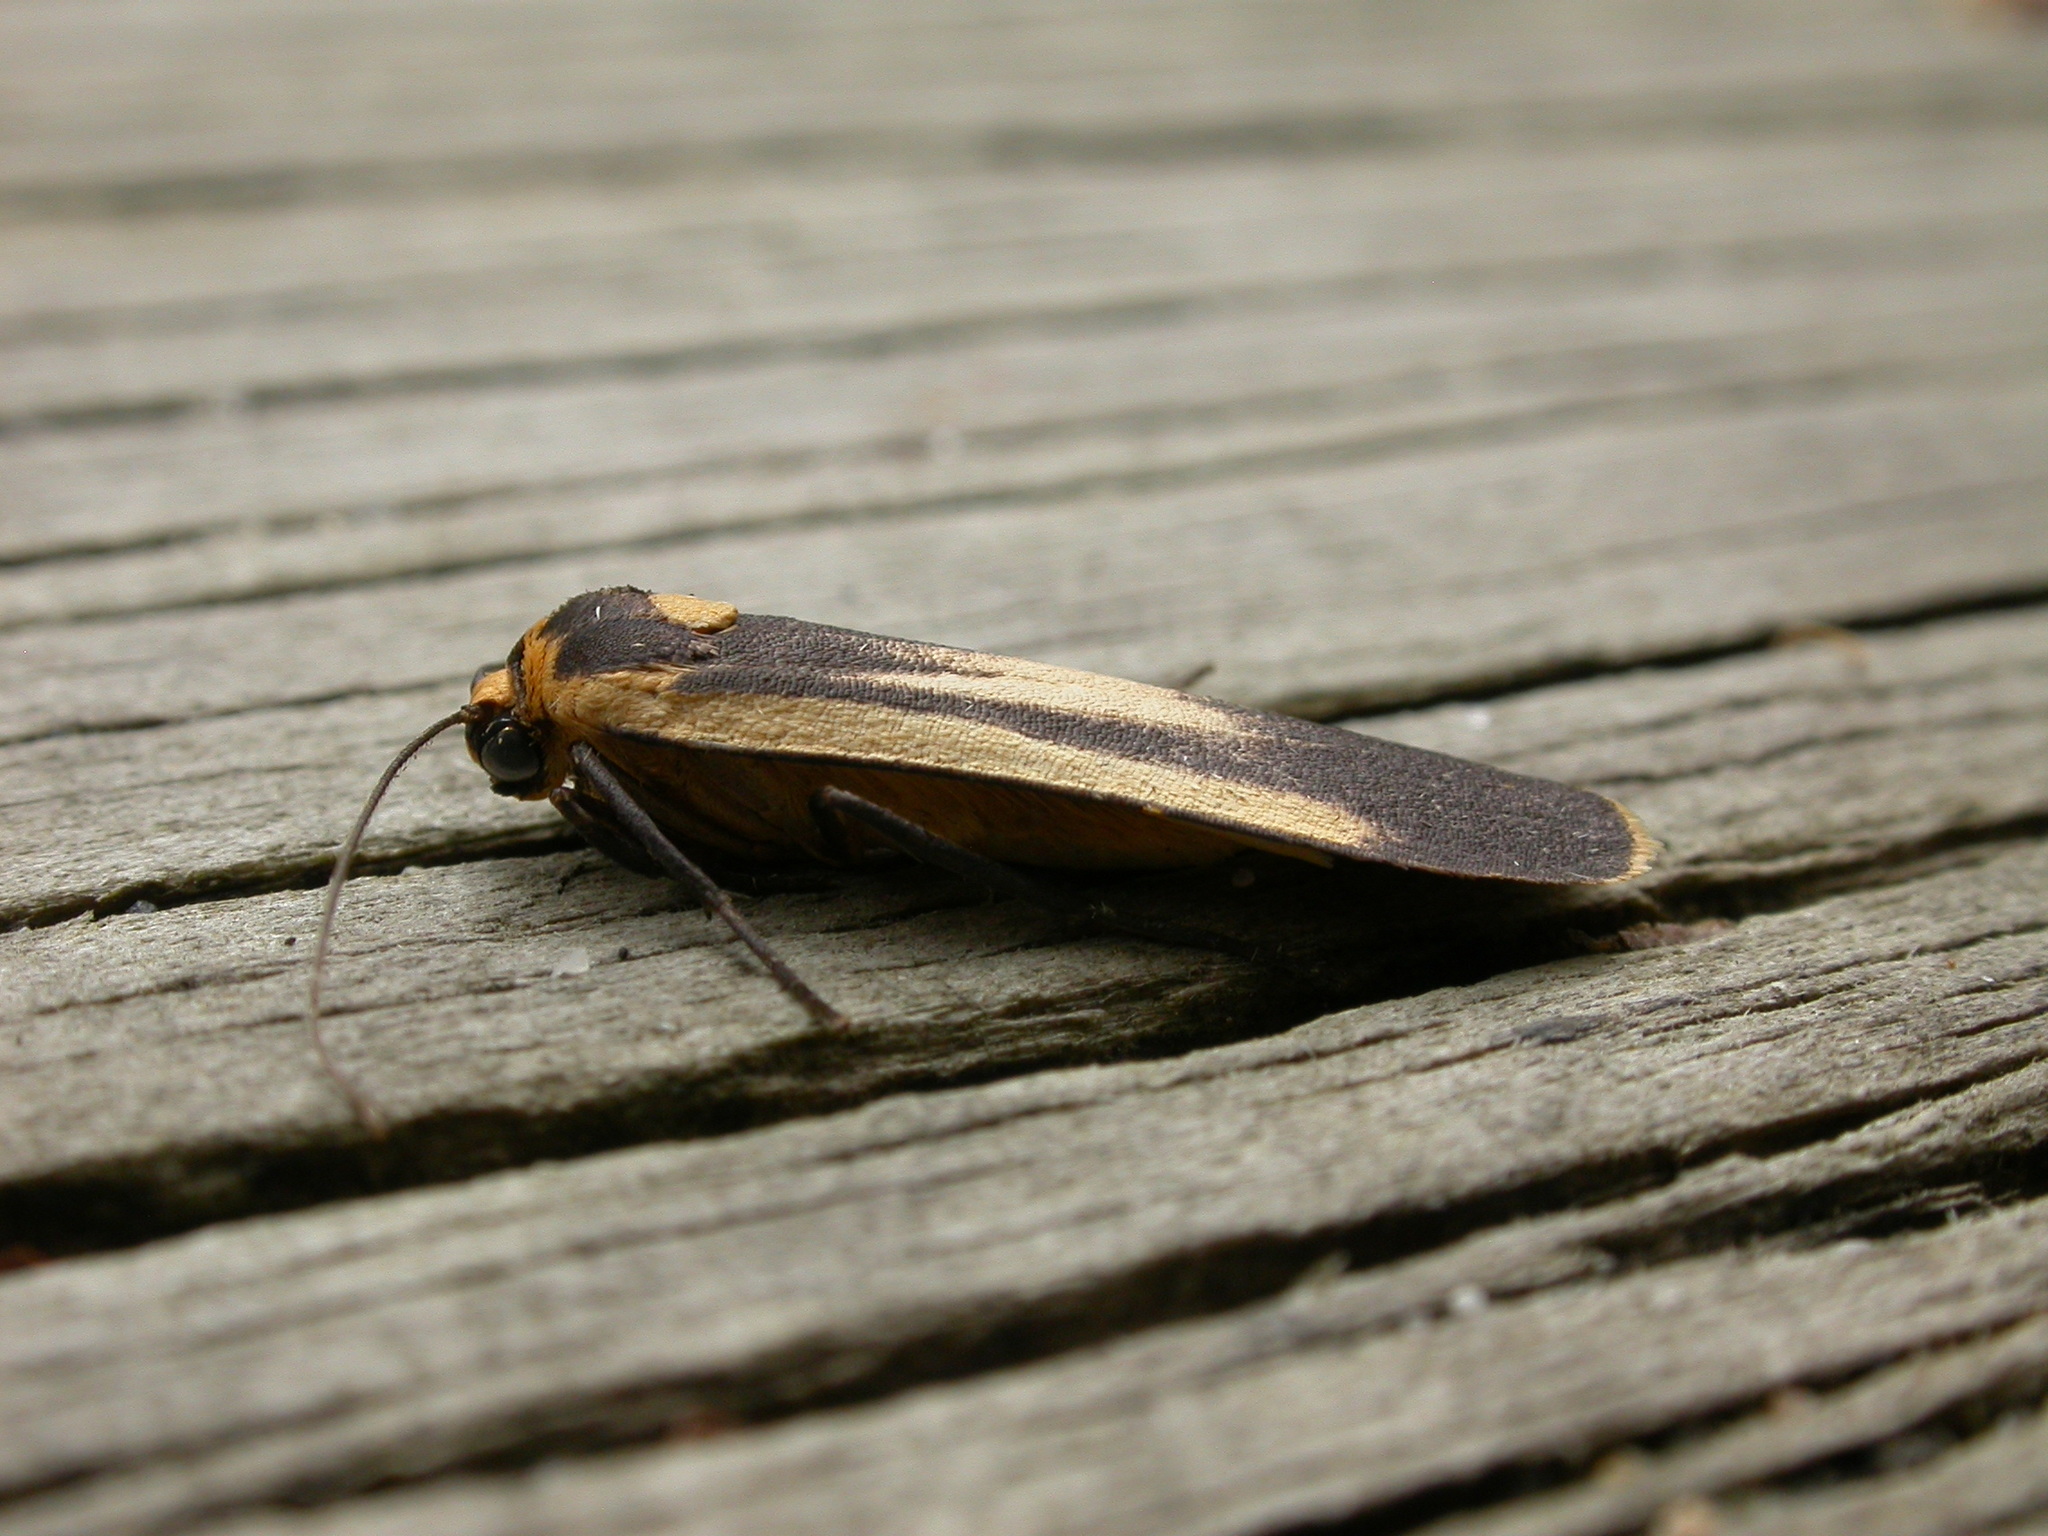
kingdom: Animalia
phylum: Arthropoda
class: Insecta
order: Lepidoptera
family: Erebidae
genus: Brunia
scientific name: Brunia replana
